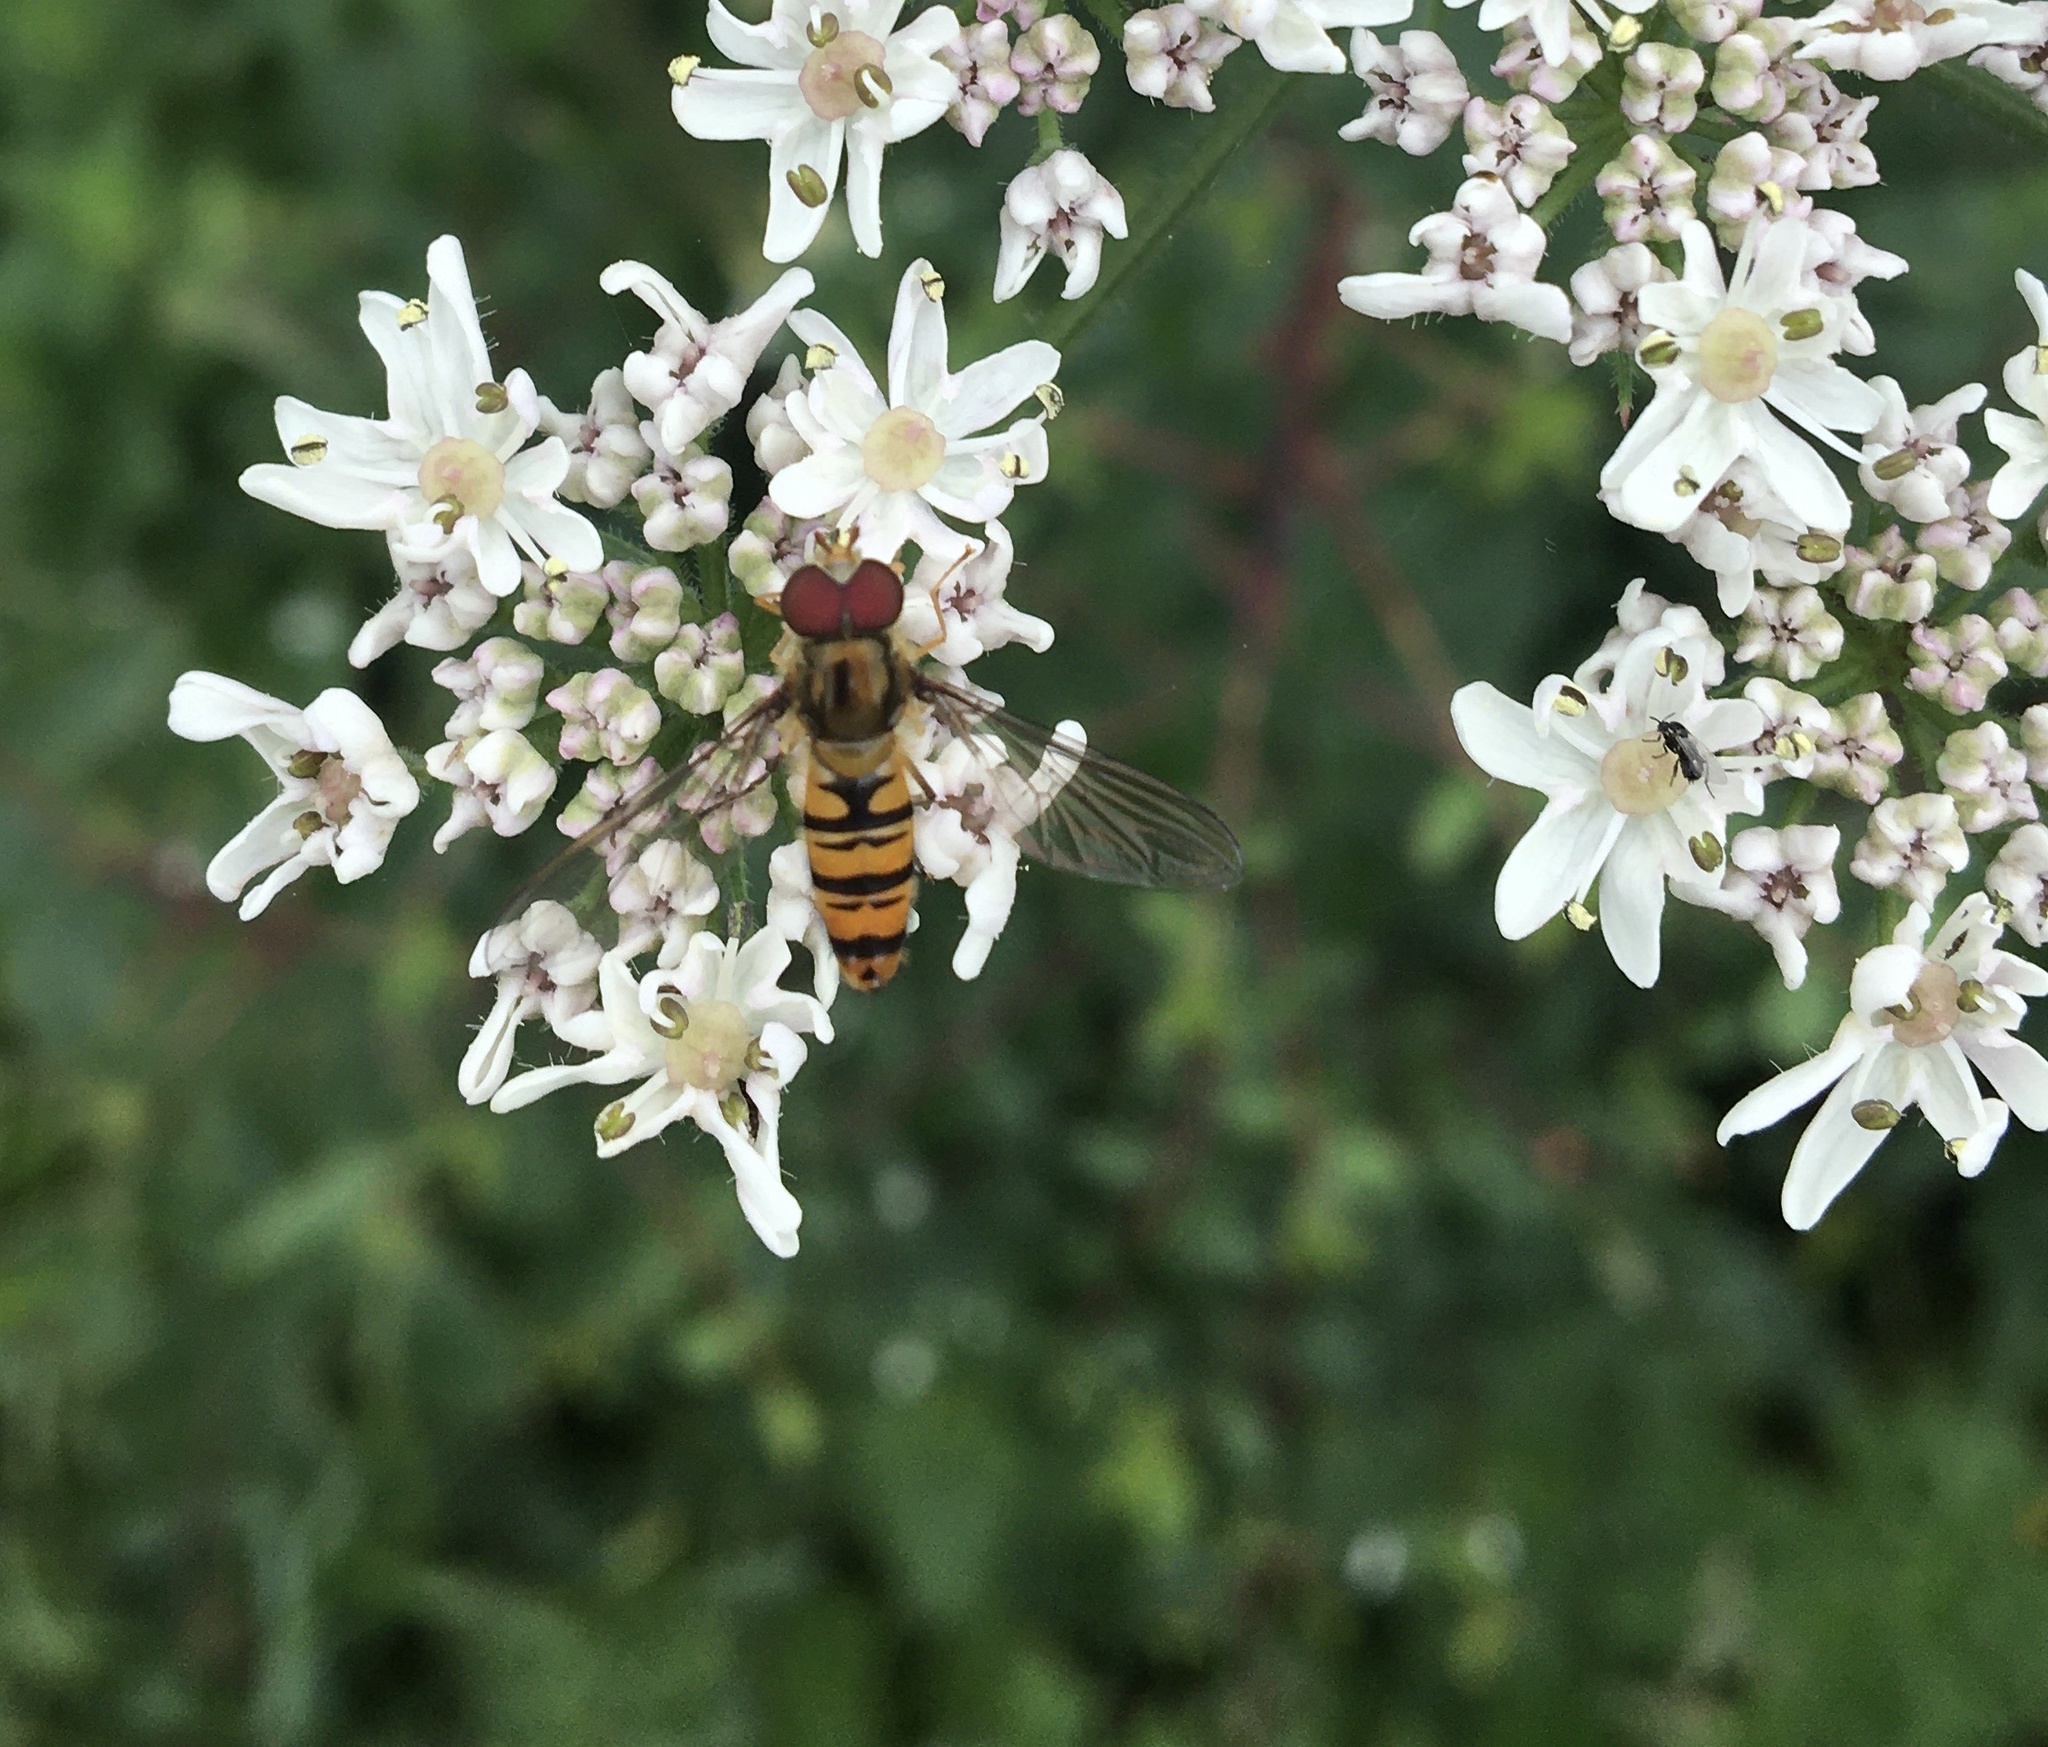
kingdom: Animalia
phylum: Arthropoda
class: Insecta
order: Diptera
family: Syrphidae
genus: Episyrphus
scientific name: Episyrphus balteatus
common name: Marmalade hoverfly
